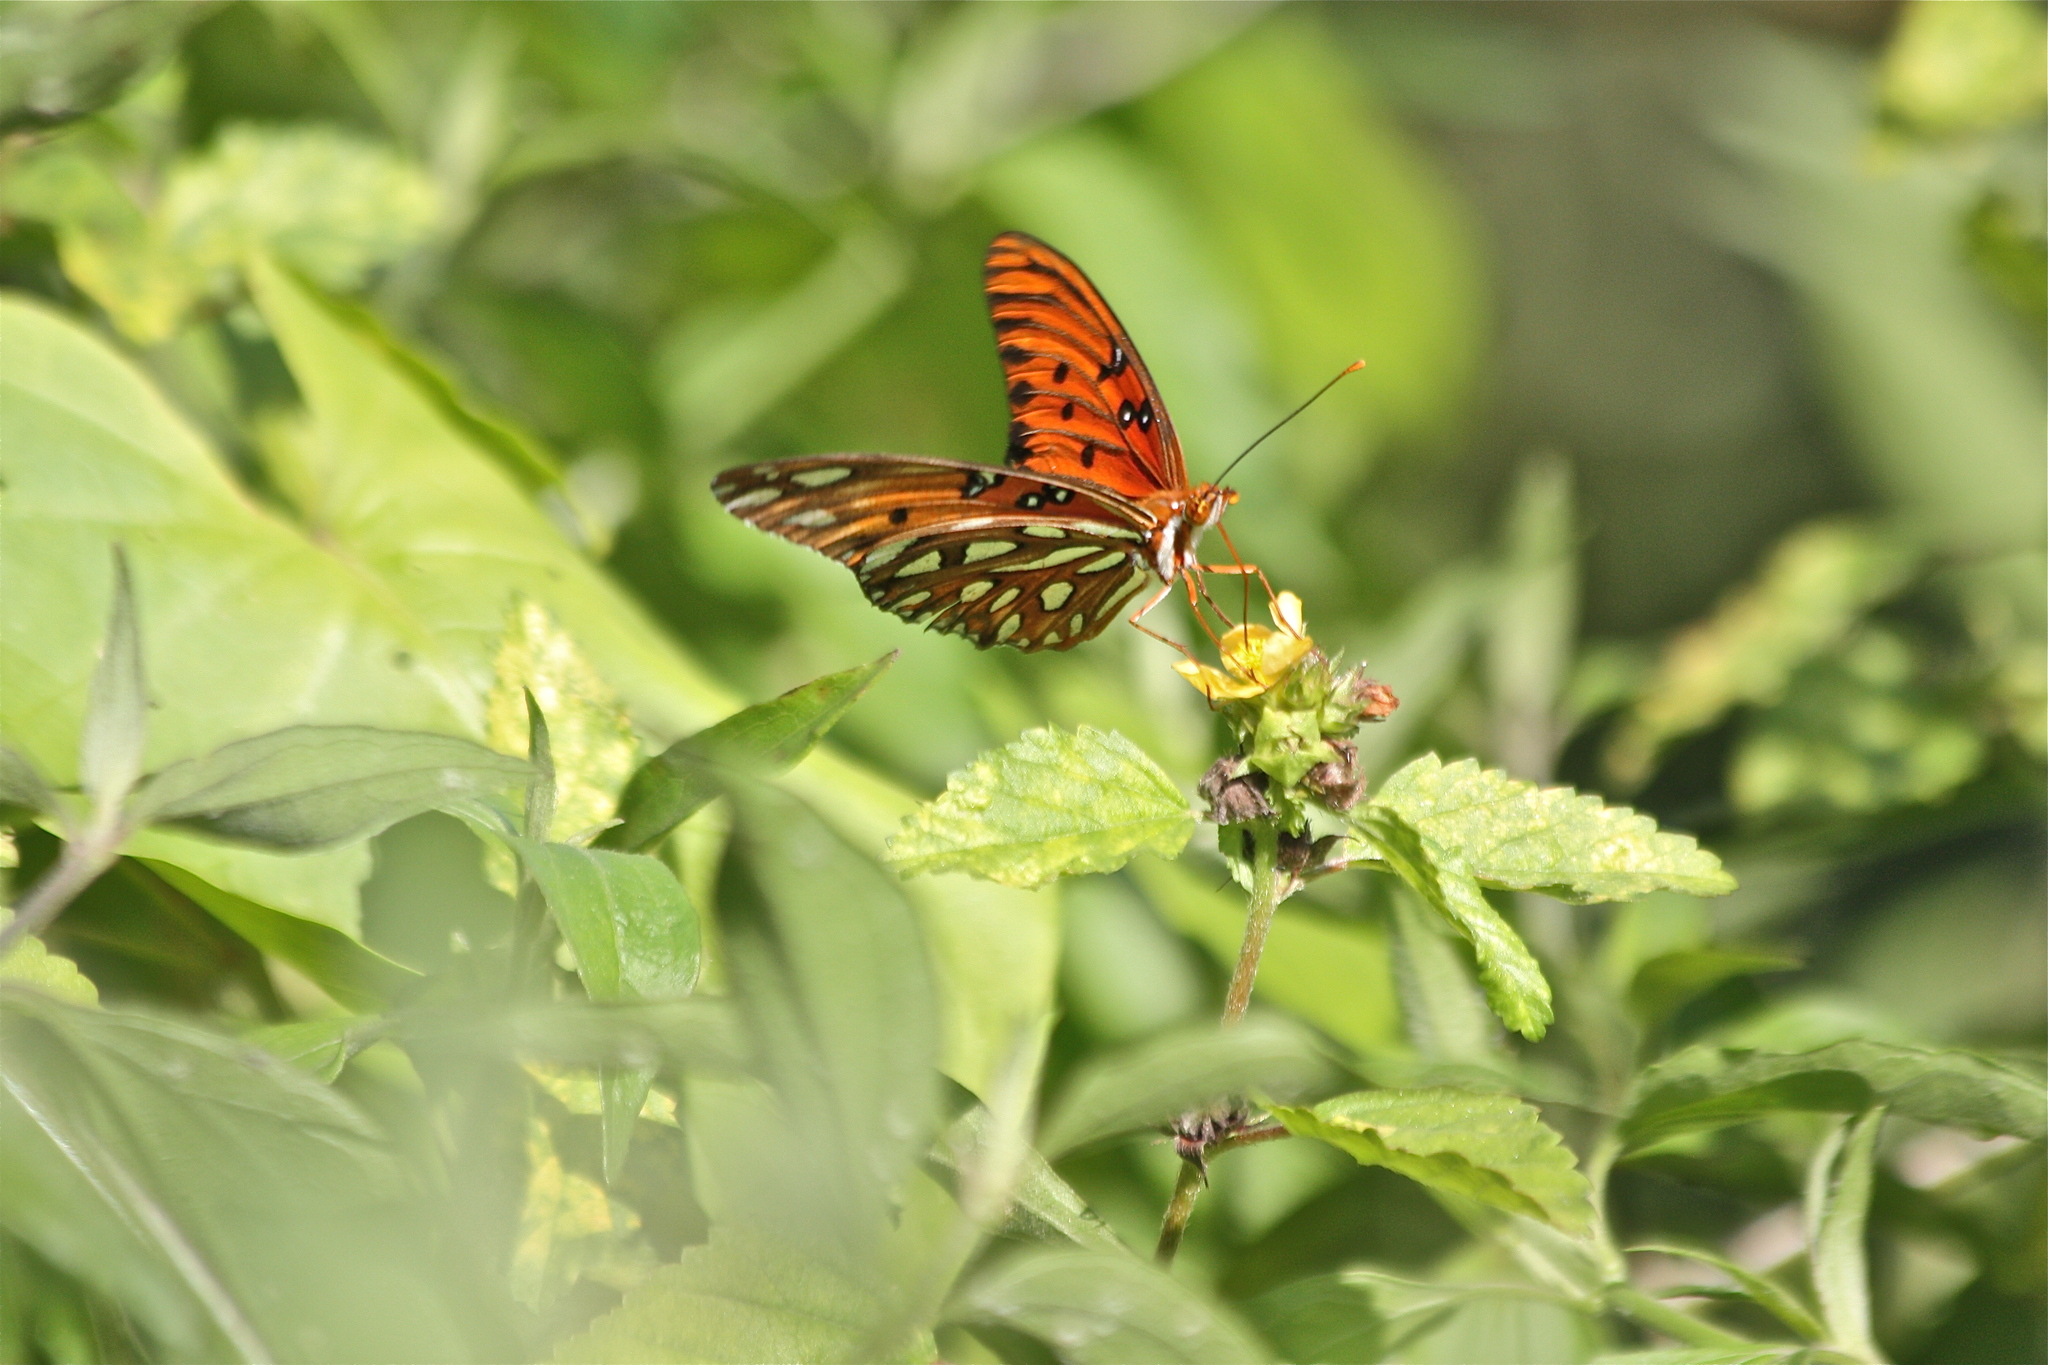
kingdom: Animalia
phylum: Arthropoda
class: Insecta
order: Lepidoptera
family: Nymphalidae
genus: Dione
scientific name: Dione vanillae
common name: Gulf fritillary
